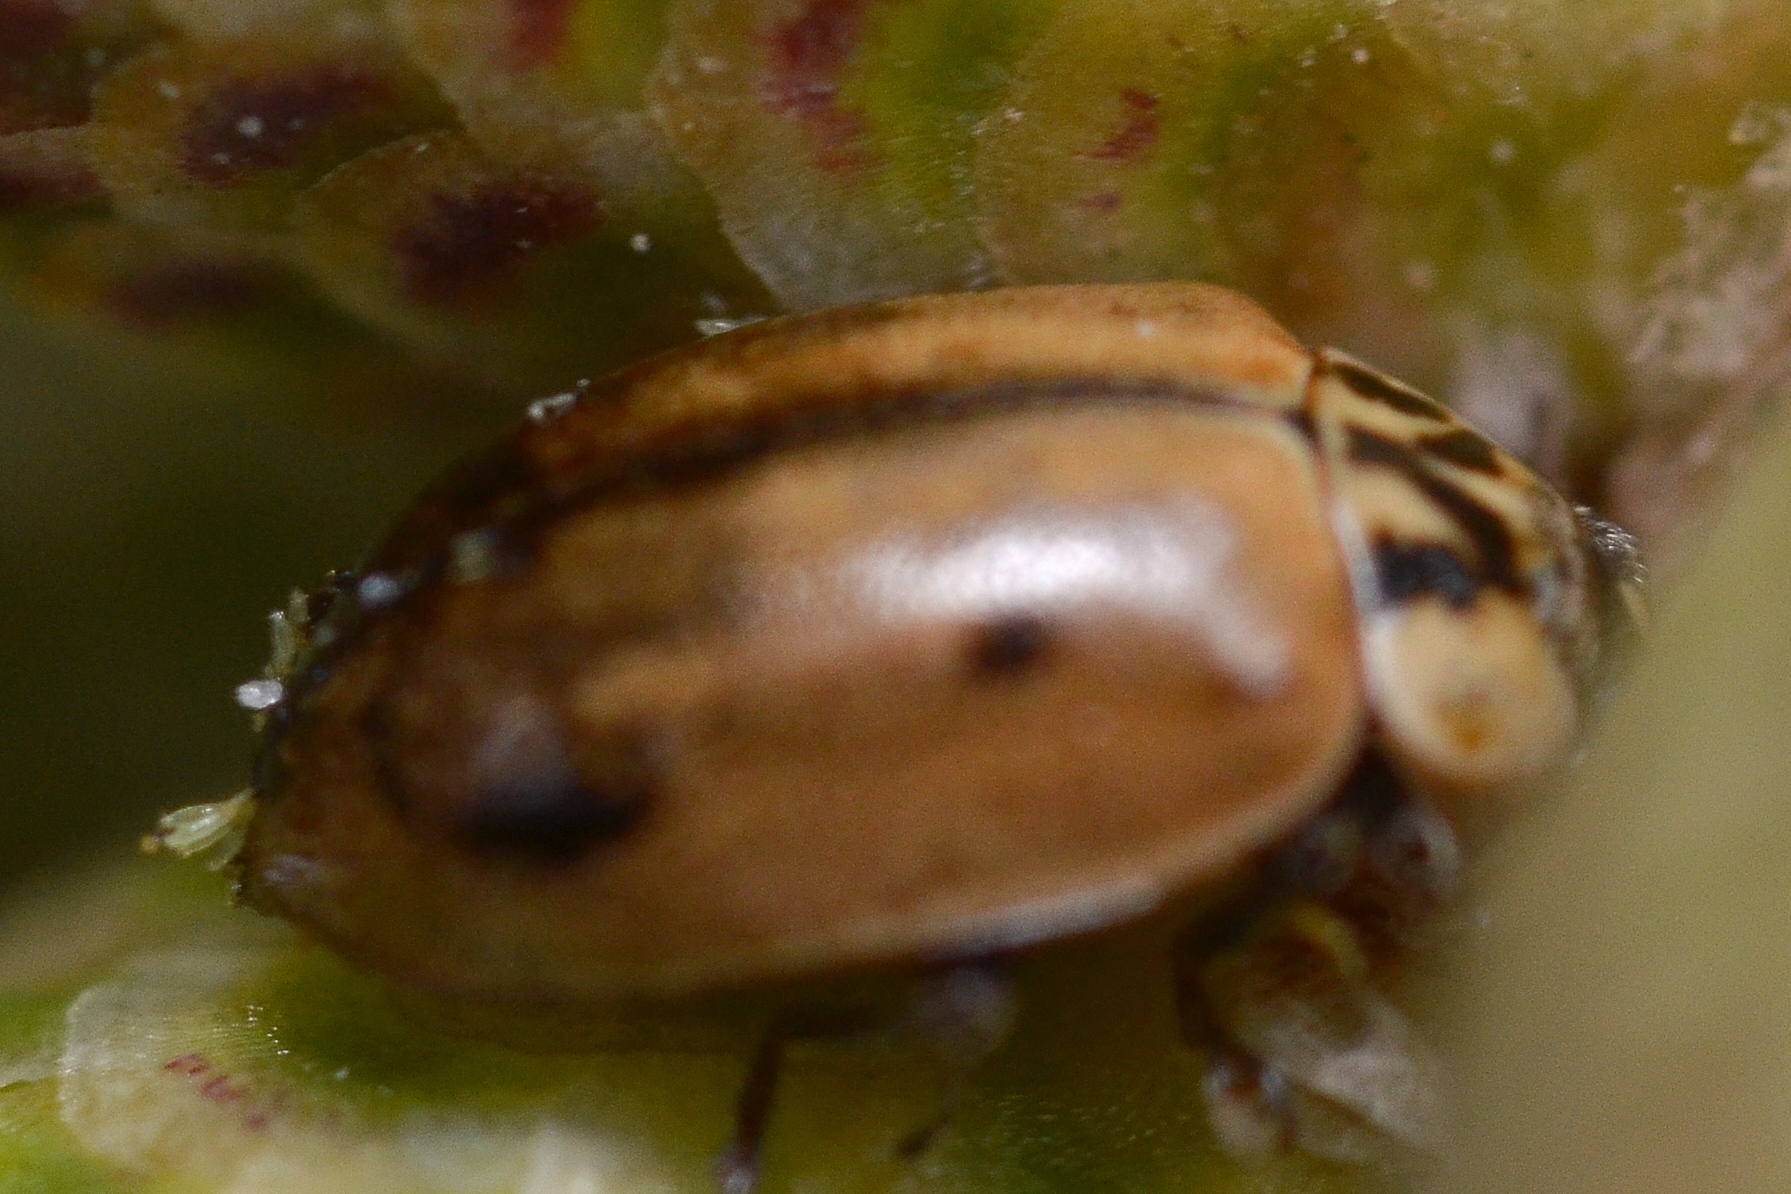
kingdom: Fungi
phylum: Ascomycota
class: Laboulbeniomycetes
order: Laboulbeniales
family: Laboulbeniaceae
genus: Hesperomyces
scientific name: Hesperomyces
